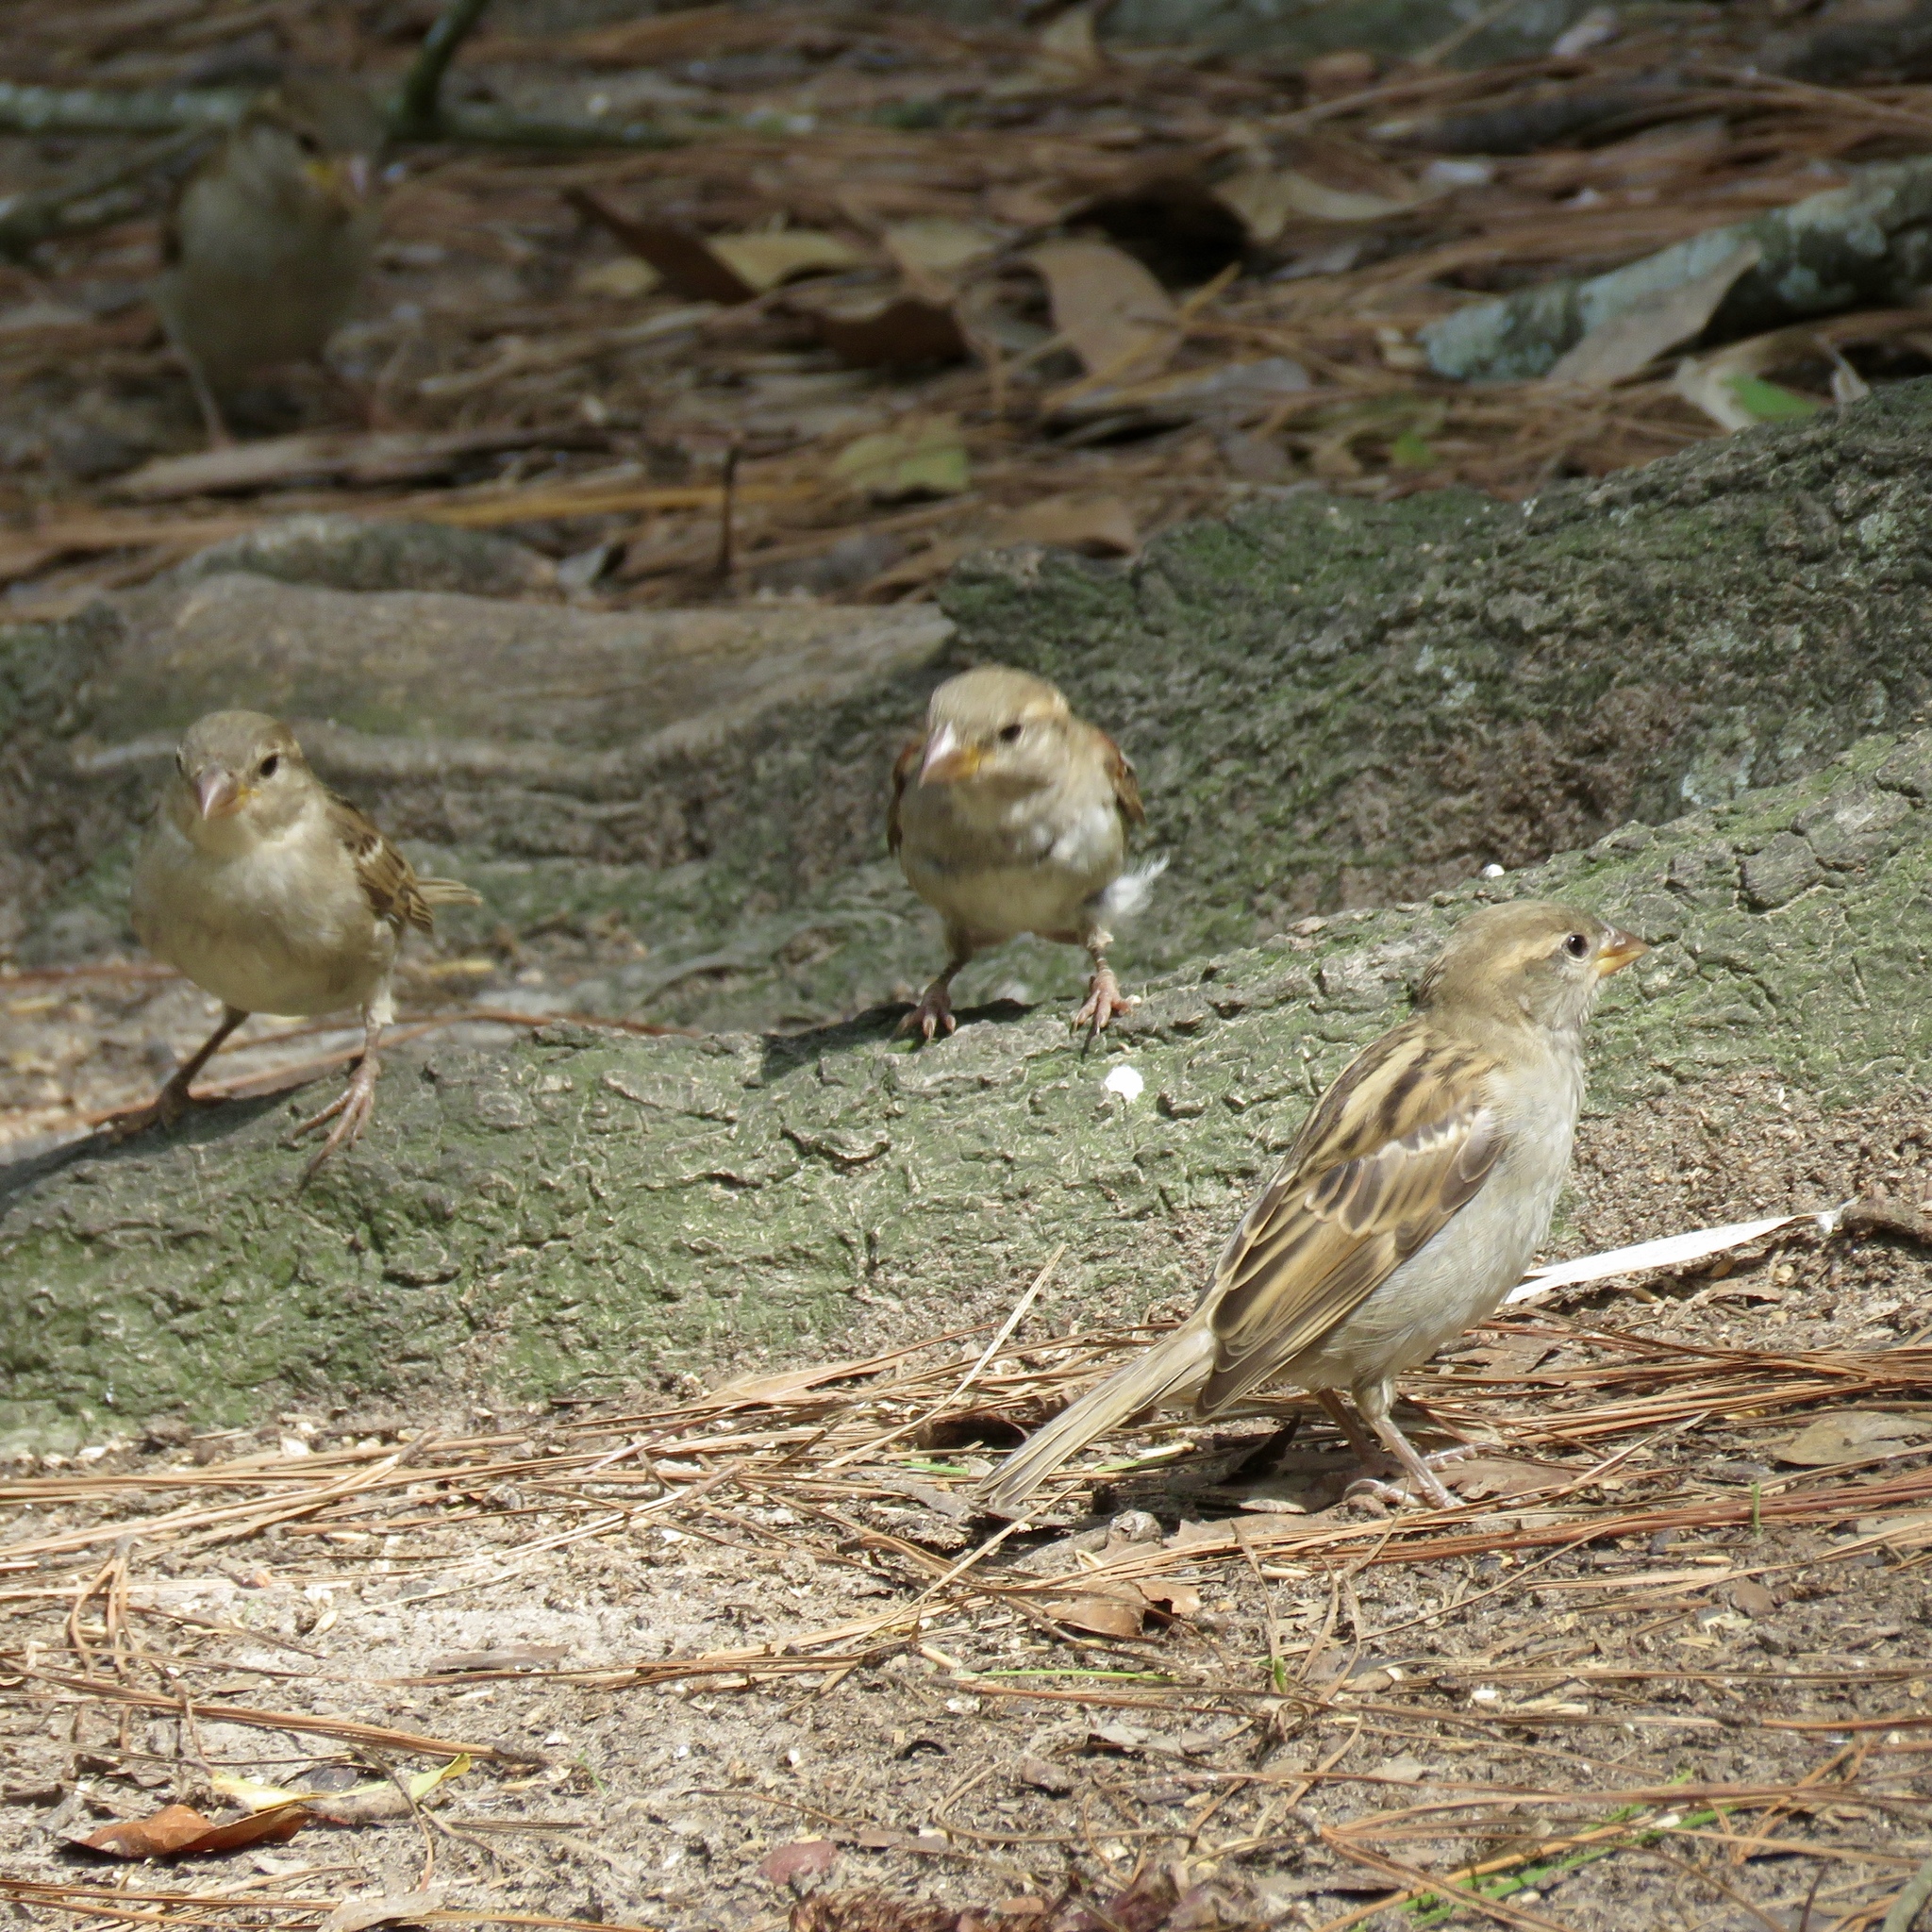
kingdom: Animalia
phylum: Chordata
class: Aves
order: Passeriformes
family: Passeridae
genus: Passer
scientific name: Passer domesticus
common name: House sparrow
